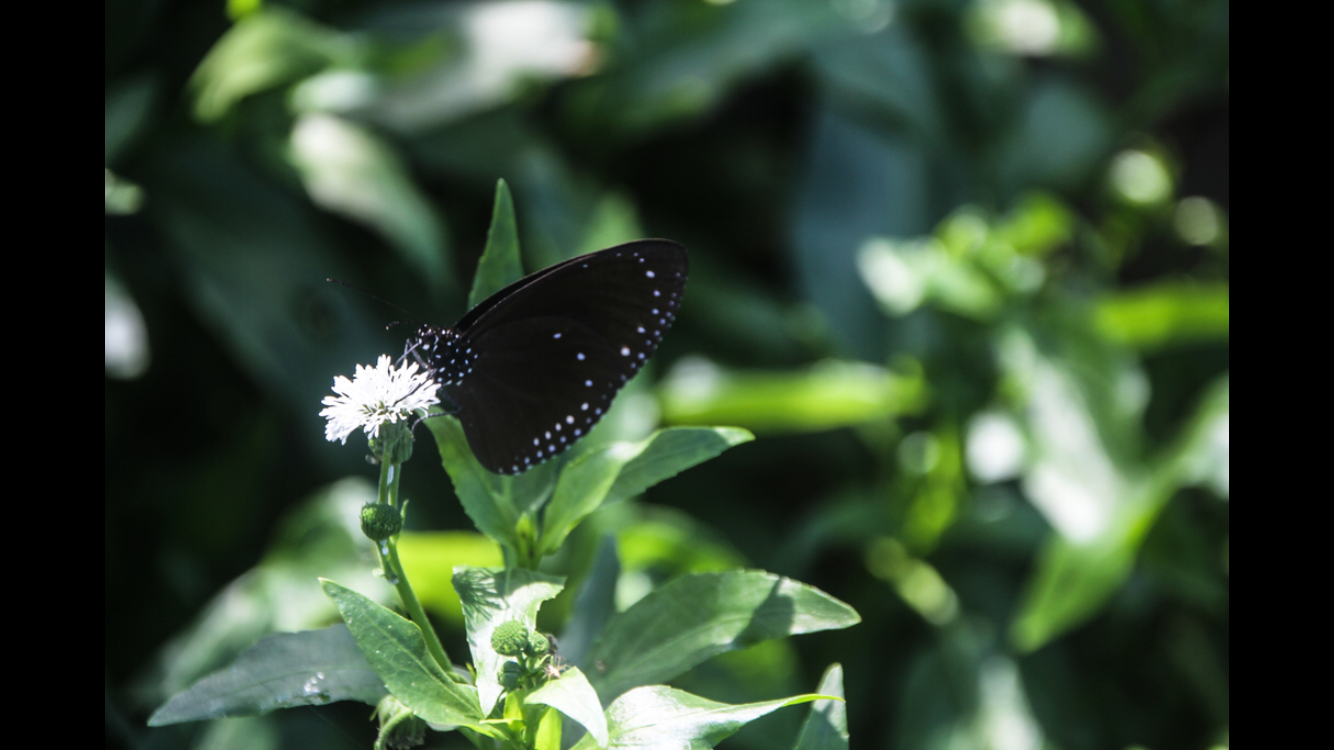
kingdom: Animalia
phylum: Arthropoda
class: Insecta
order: Lepidoptera
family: Nymphalidae
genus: Euploea
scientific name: Euploea eunice
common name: Blue-banded king crow butterfly
